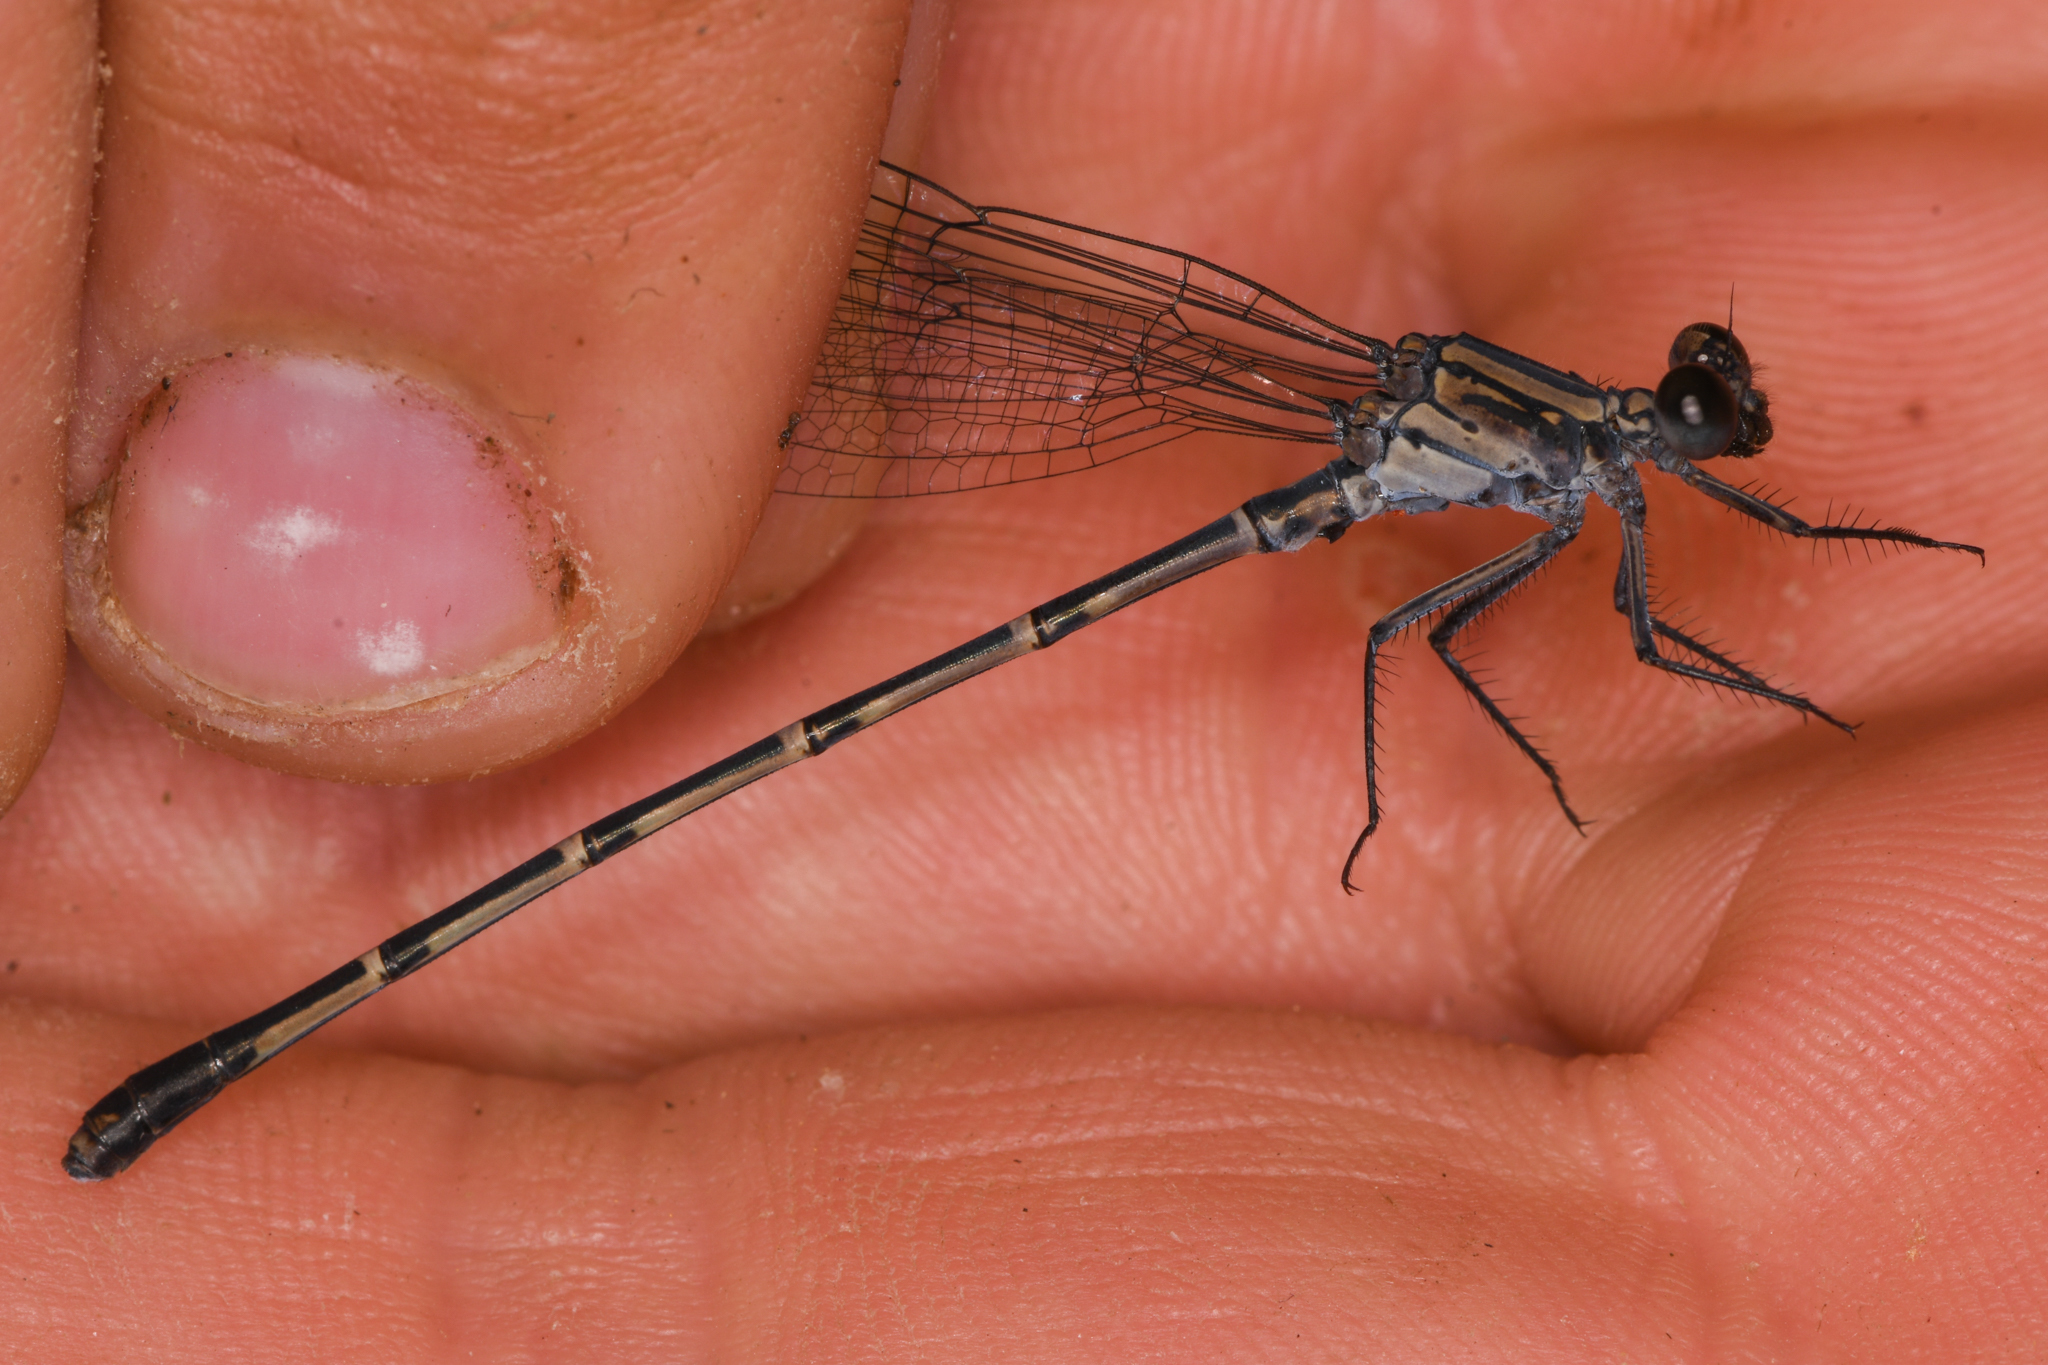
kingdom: Animalia
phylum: Arthropoda
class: Insecta
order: Odonata
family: Coenagrionidae
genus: Argia
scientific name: Argia lugens
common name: Sooty dancer
